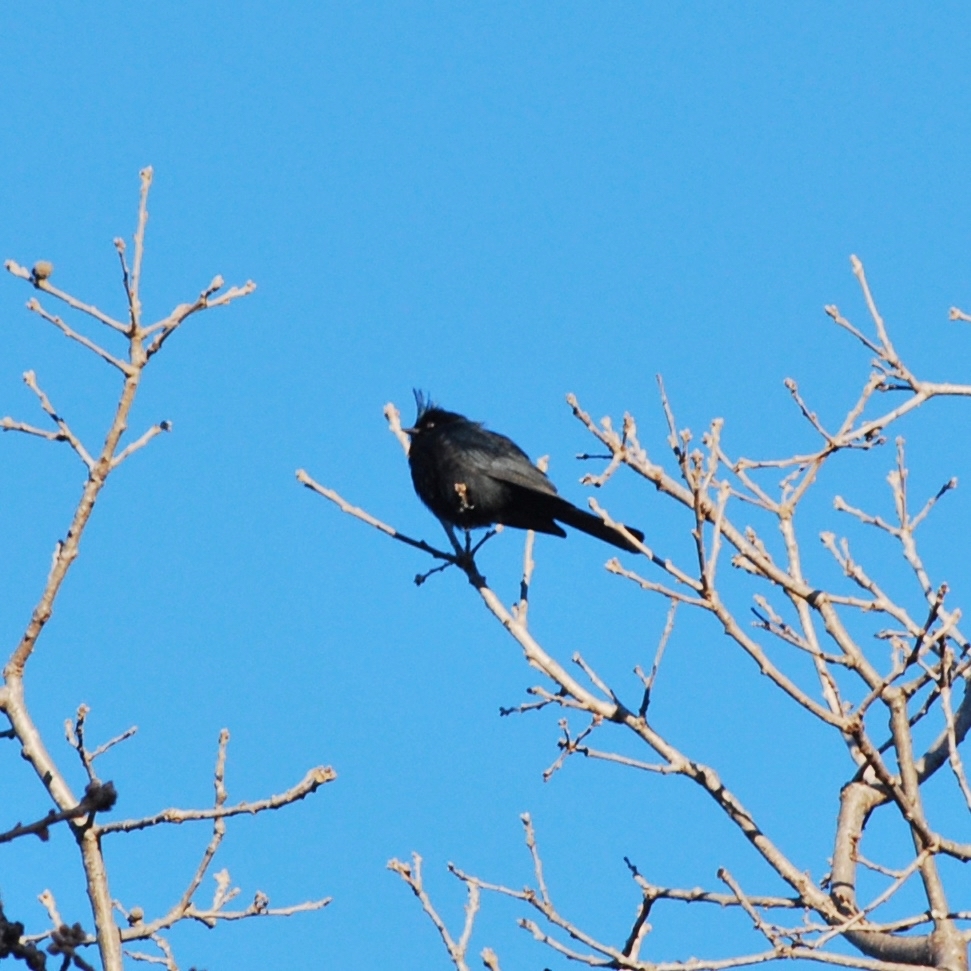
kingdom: Animalia
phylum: Chordata
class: Aves
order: Passeriformes
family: Ptilogonatidae
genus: Phainopepla
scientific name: Phainopepla nitens
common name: Phainopepla
